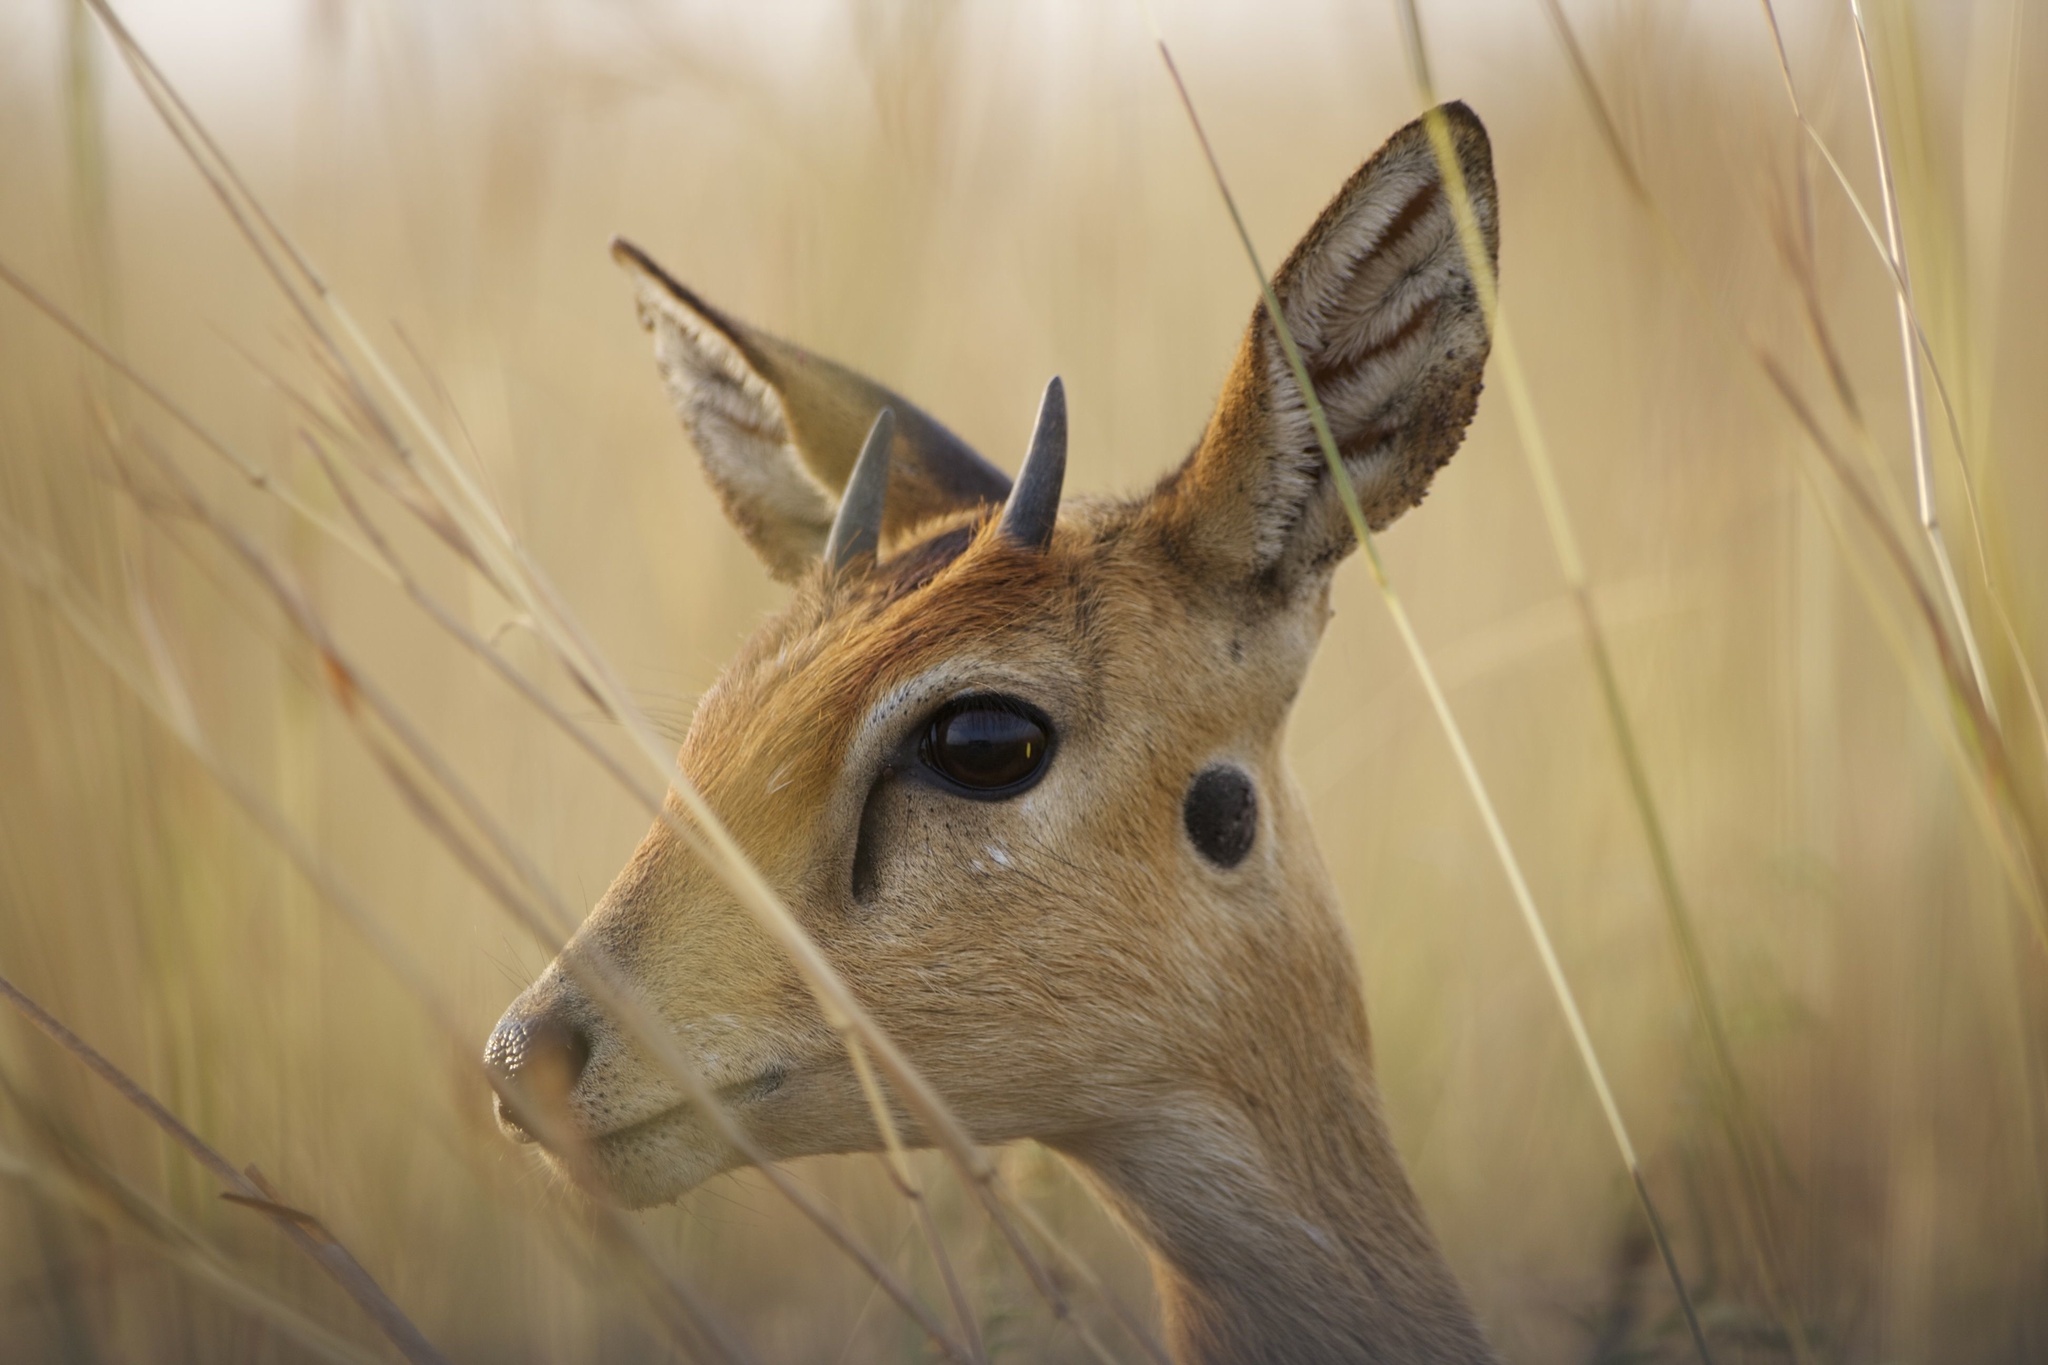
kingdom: Animalia
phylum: Chordata
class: Mammalia
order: Artiodactyla
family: Bovidae
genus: Ourebia
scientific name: Ourebia ourebi
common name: Oribi
